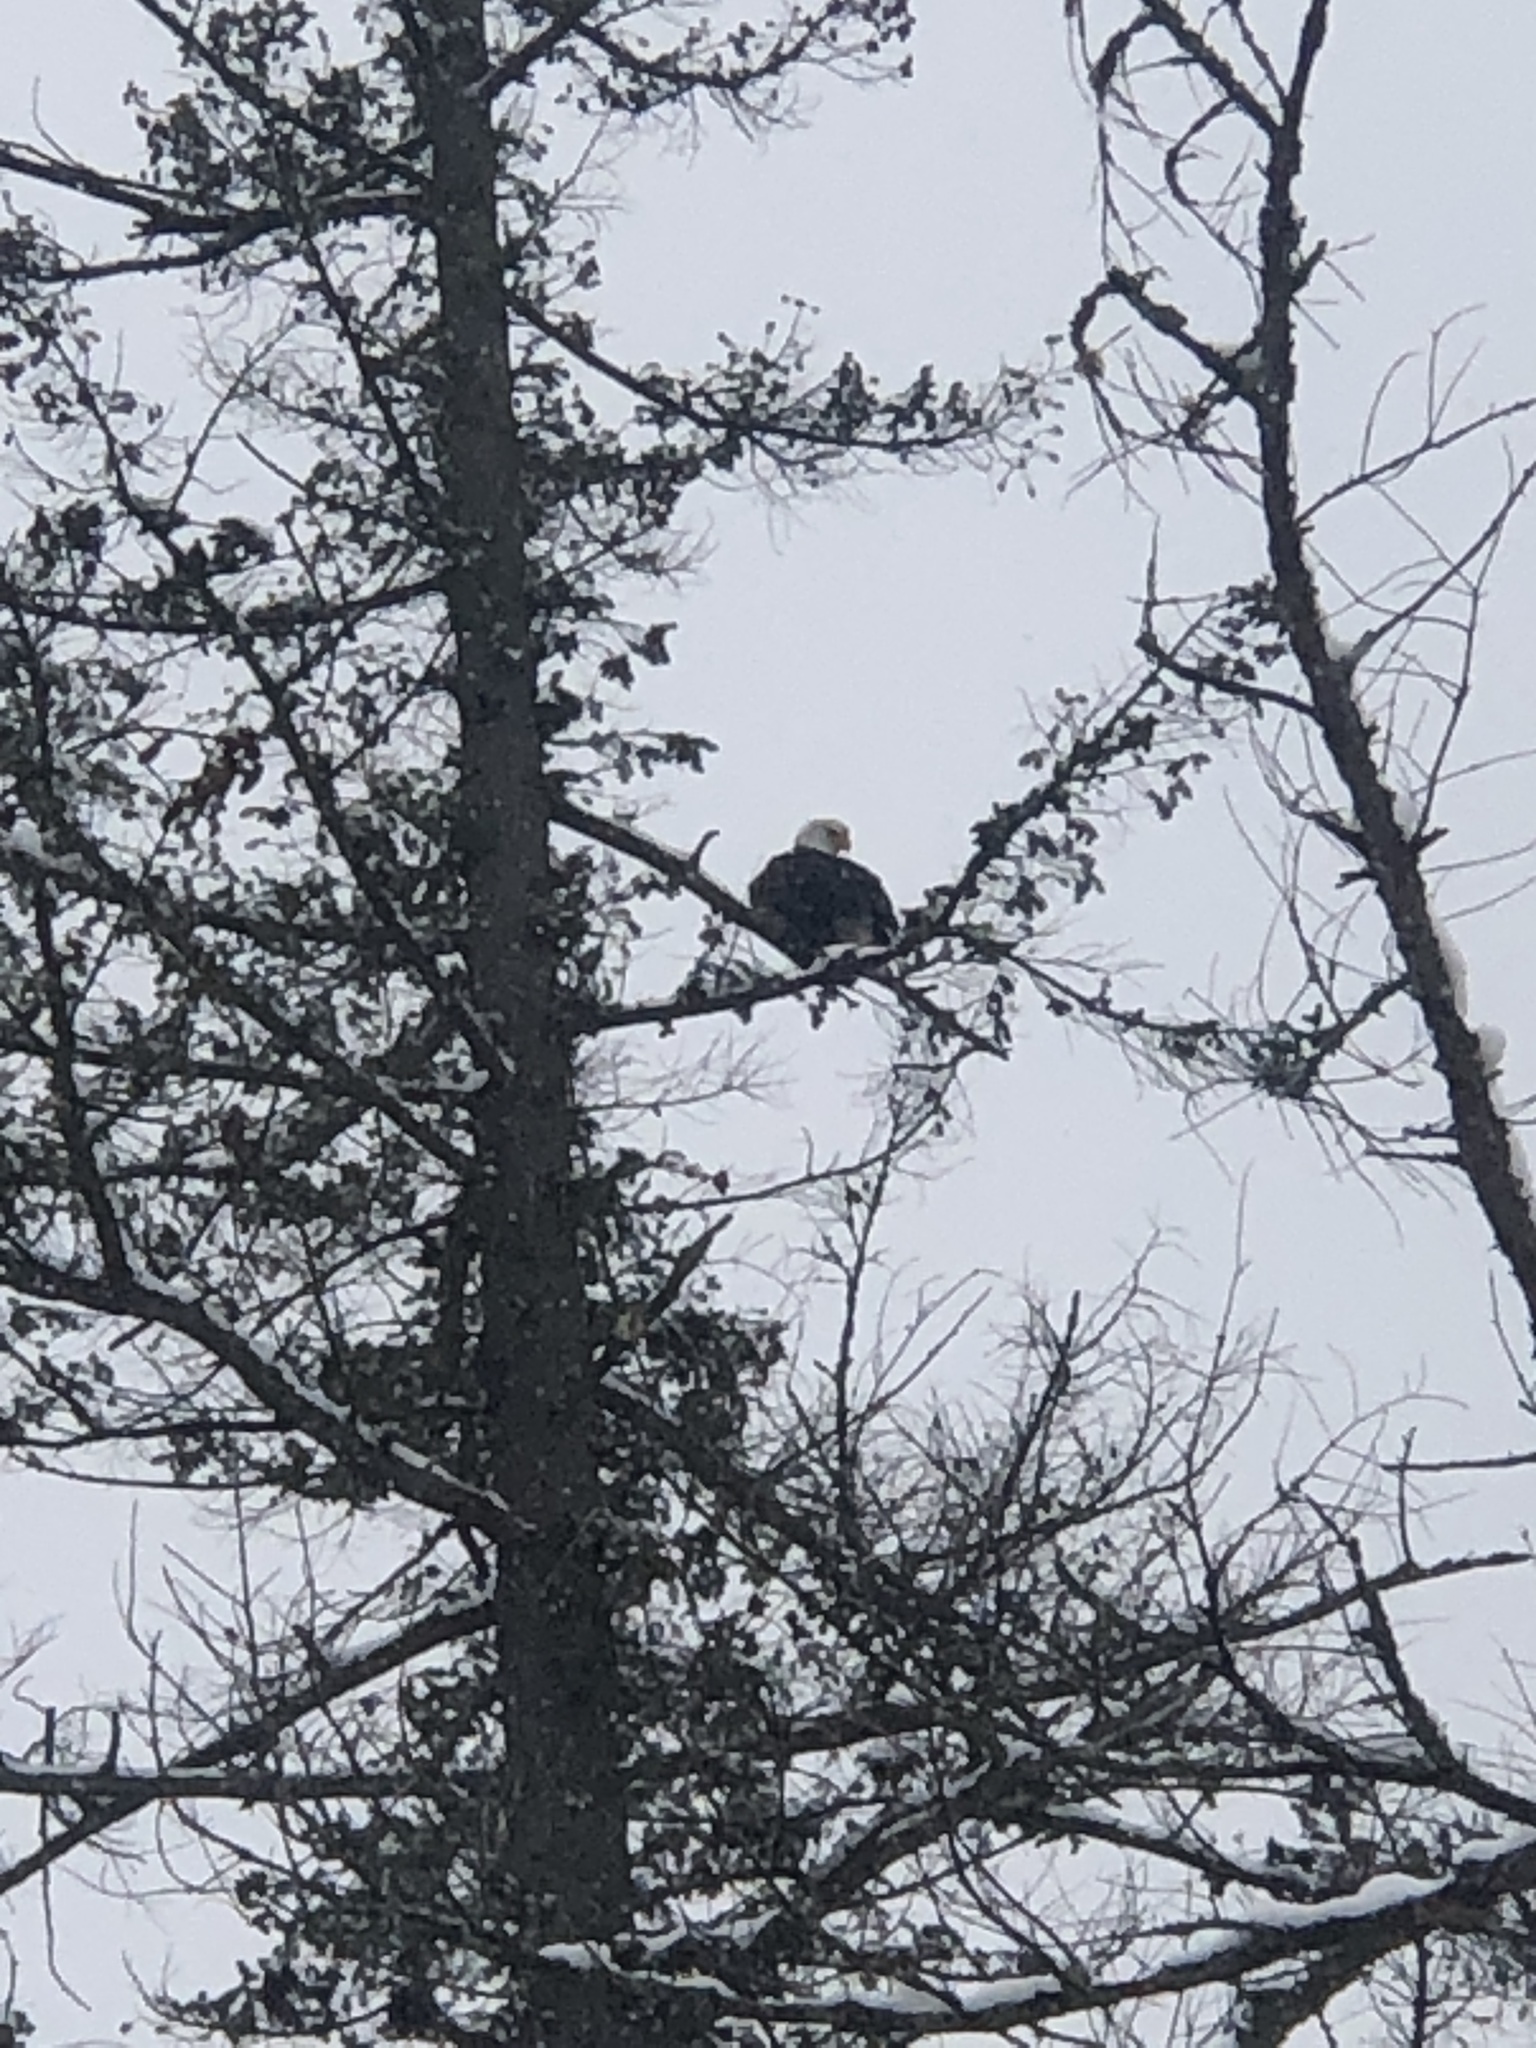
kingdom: Animalia
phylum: Chordata
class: Aves
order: Accipitriformes
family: Accipitridae
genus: Haliaeetus
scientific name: Haliaeetus leucocephalus
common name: Bald eagle
